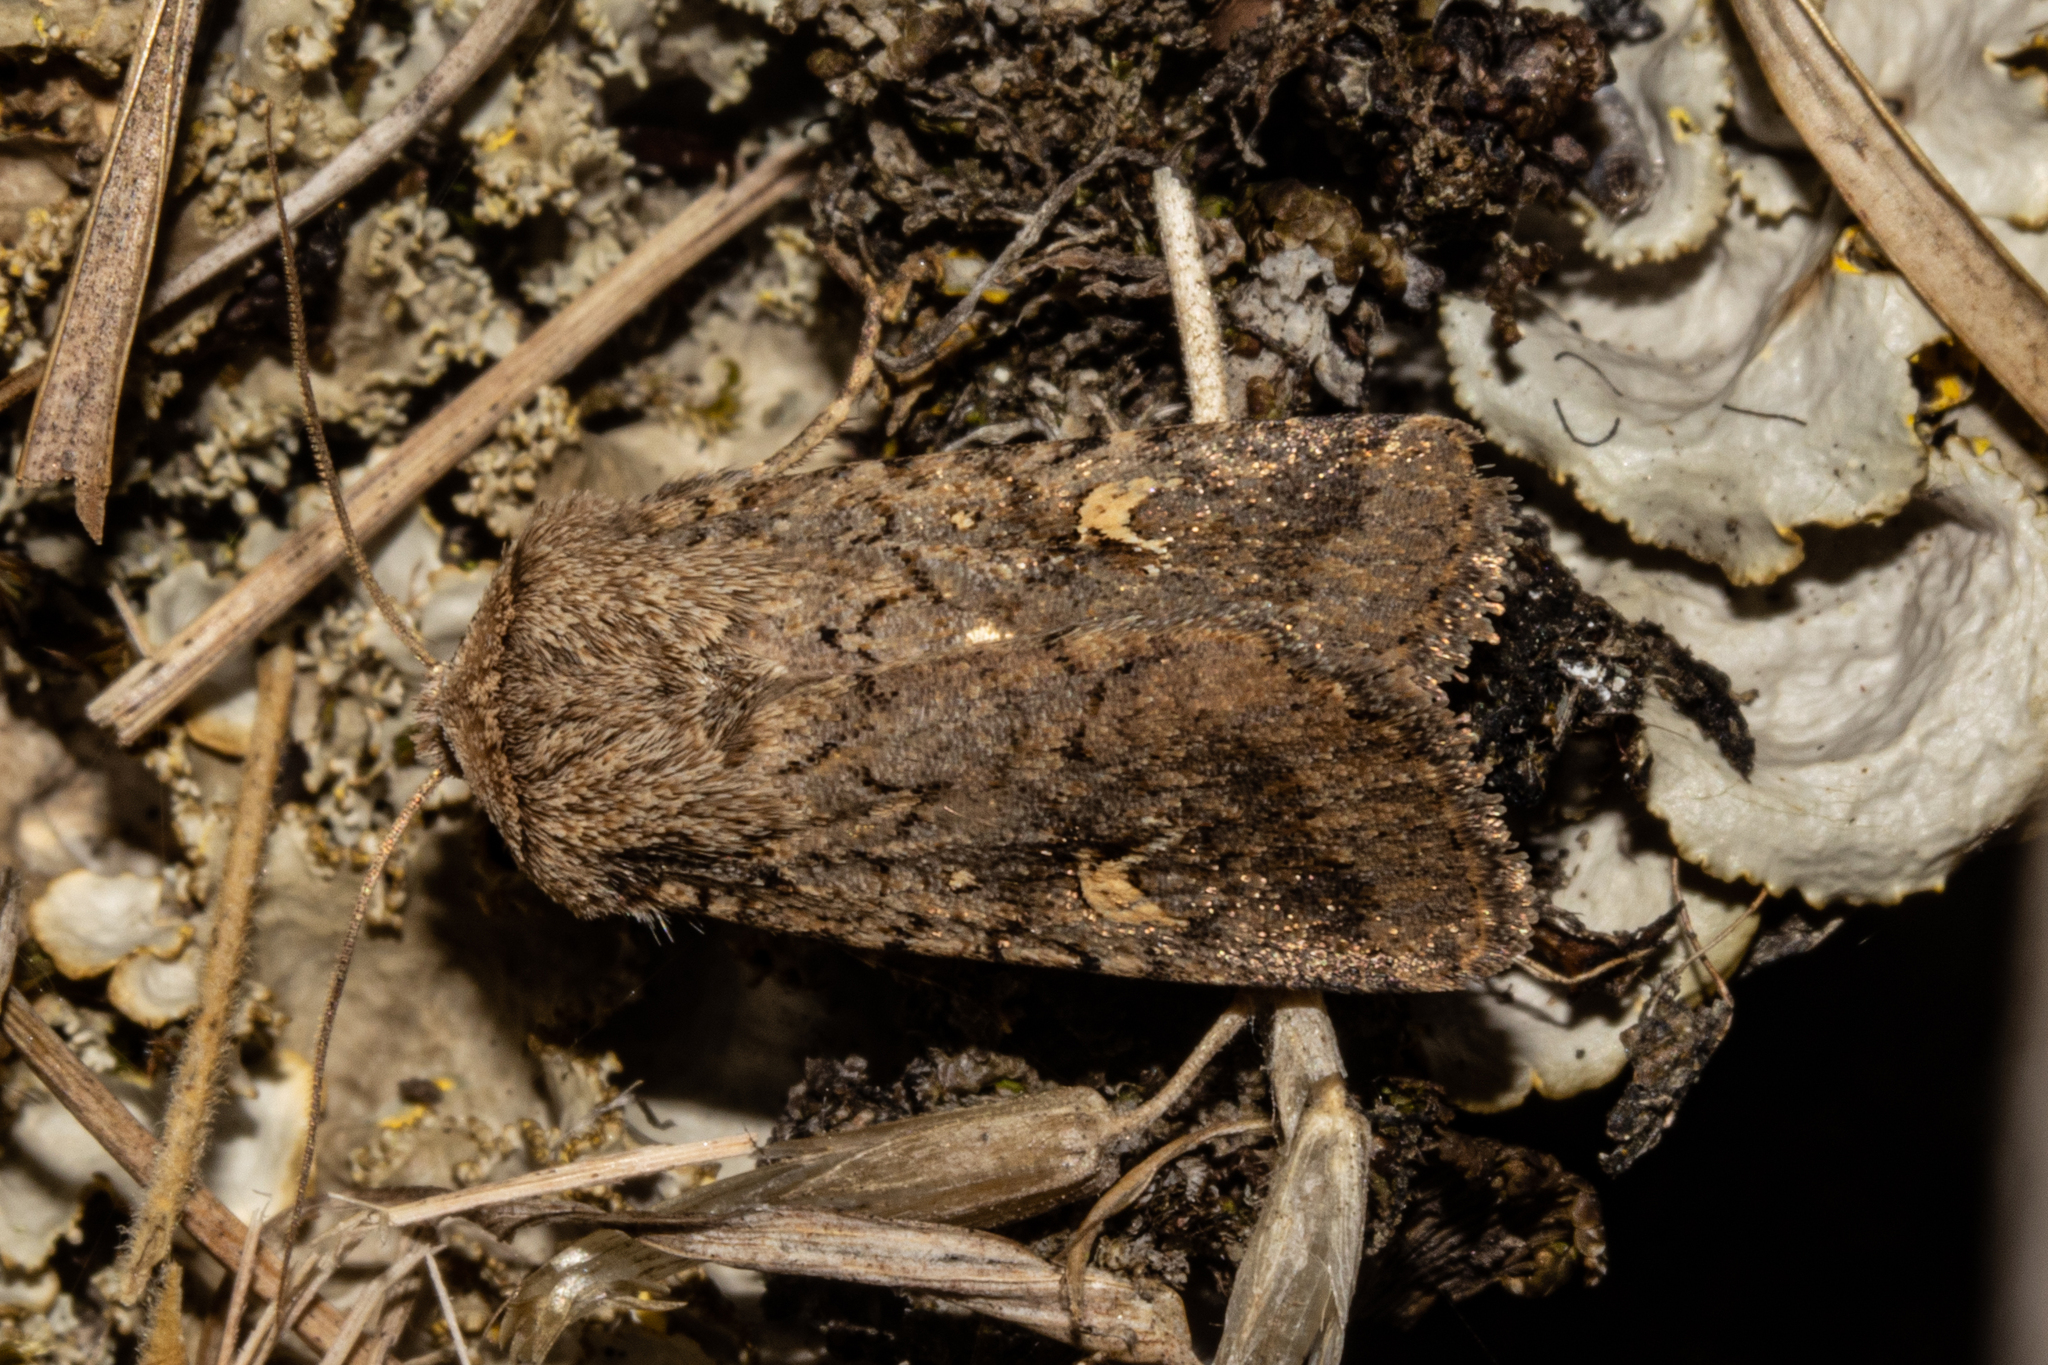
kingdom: Animalia
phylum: Arthropoda
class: Insecta
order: Lepidoptera
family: Noctuidae
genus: Proteuxoa
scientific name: Proteuxoa tetronycha
